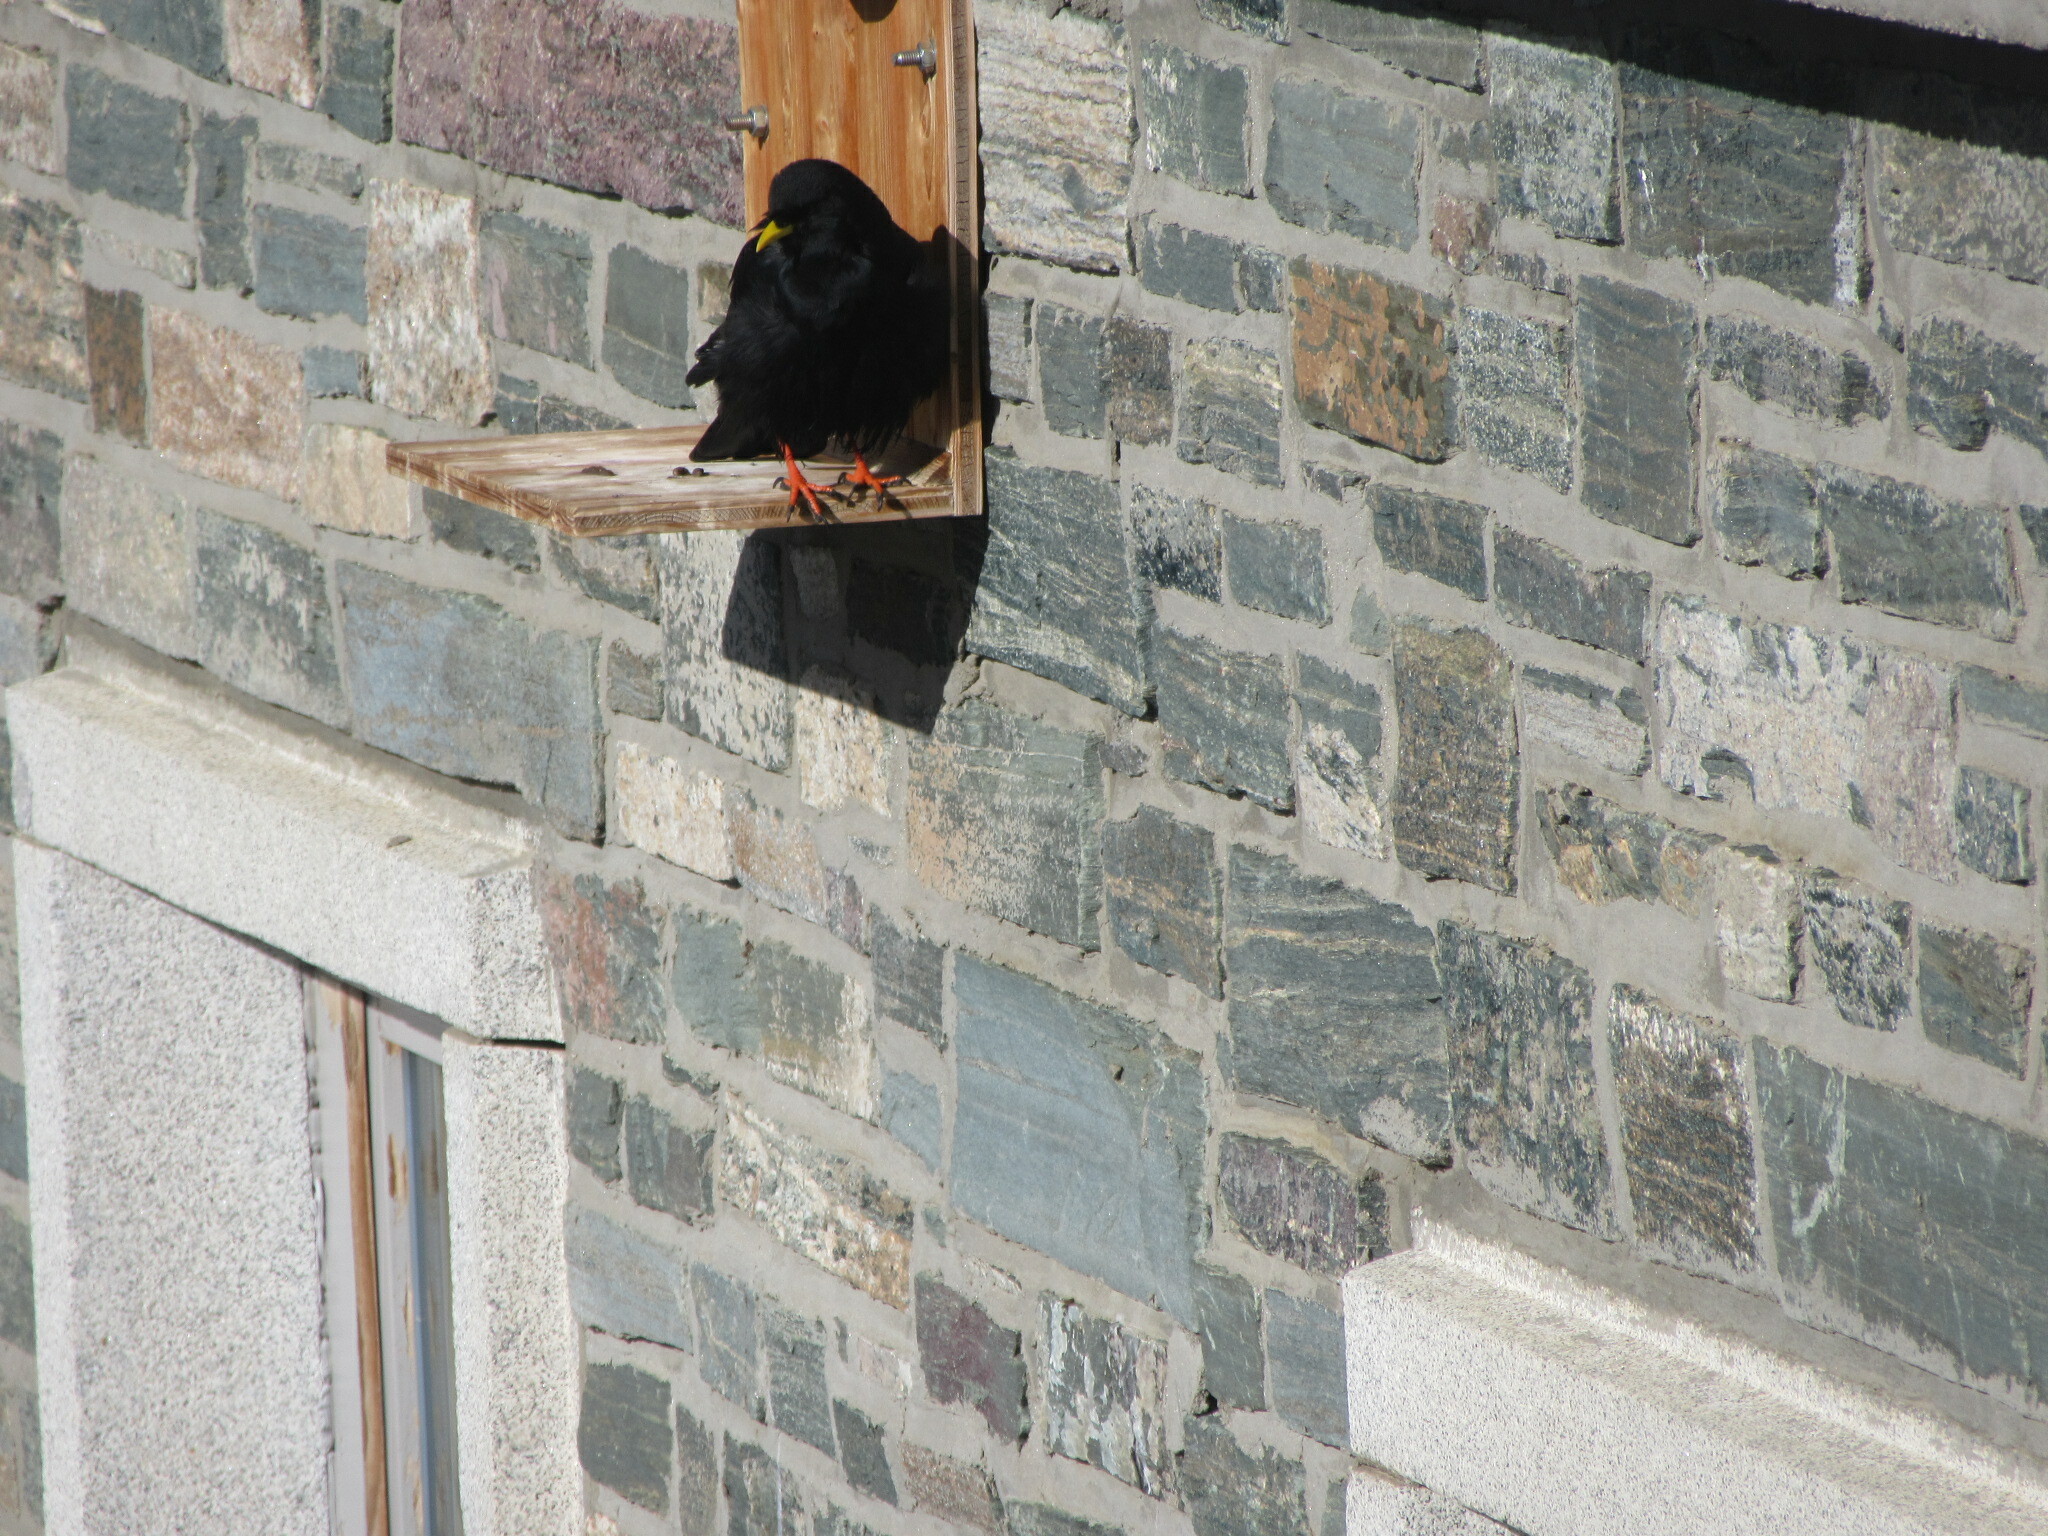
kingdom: Animalia
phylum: Chordata
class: Aves
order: Passeriformes
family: Corvidae
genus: Pyrrhocorax
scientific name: Pyrrhocorax graculus
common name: Alpine chough
